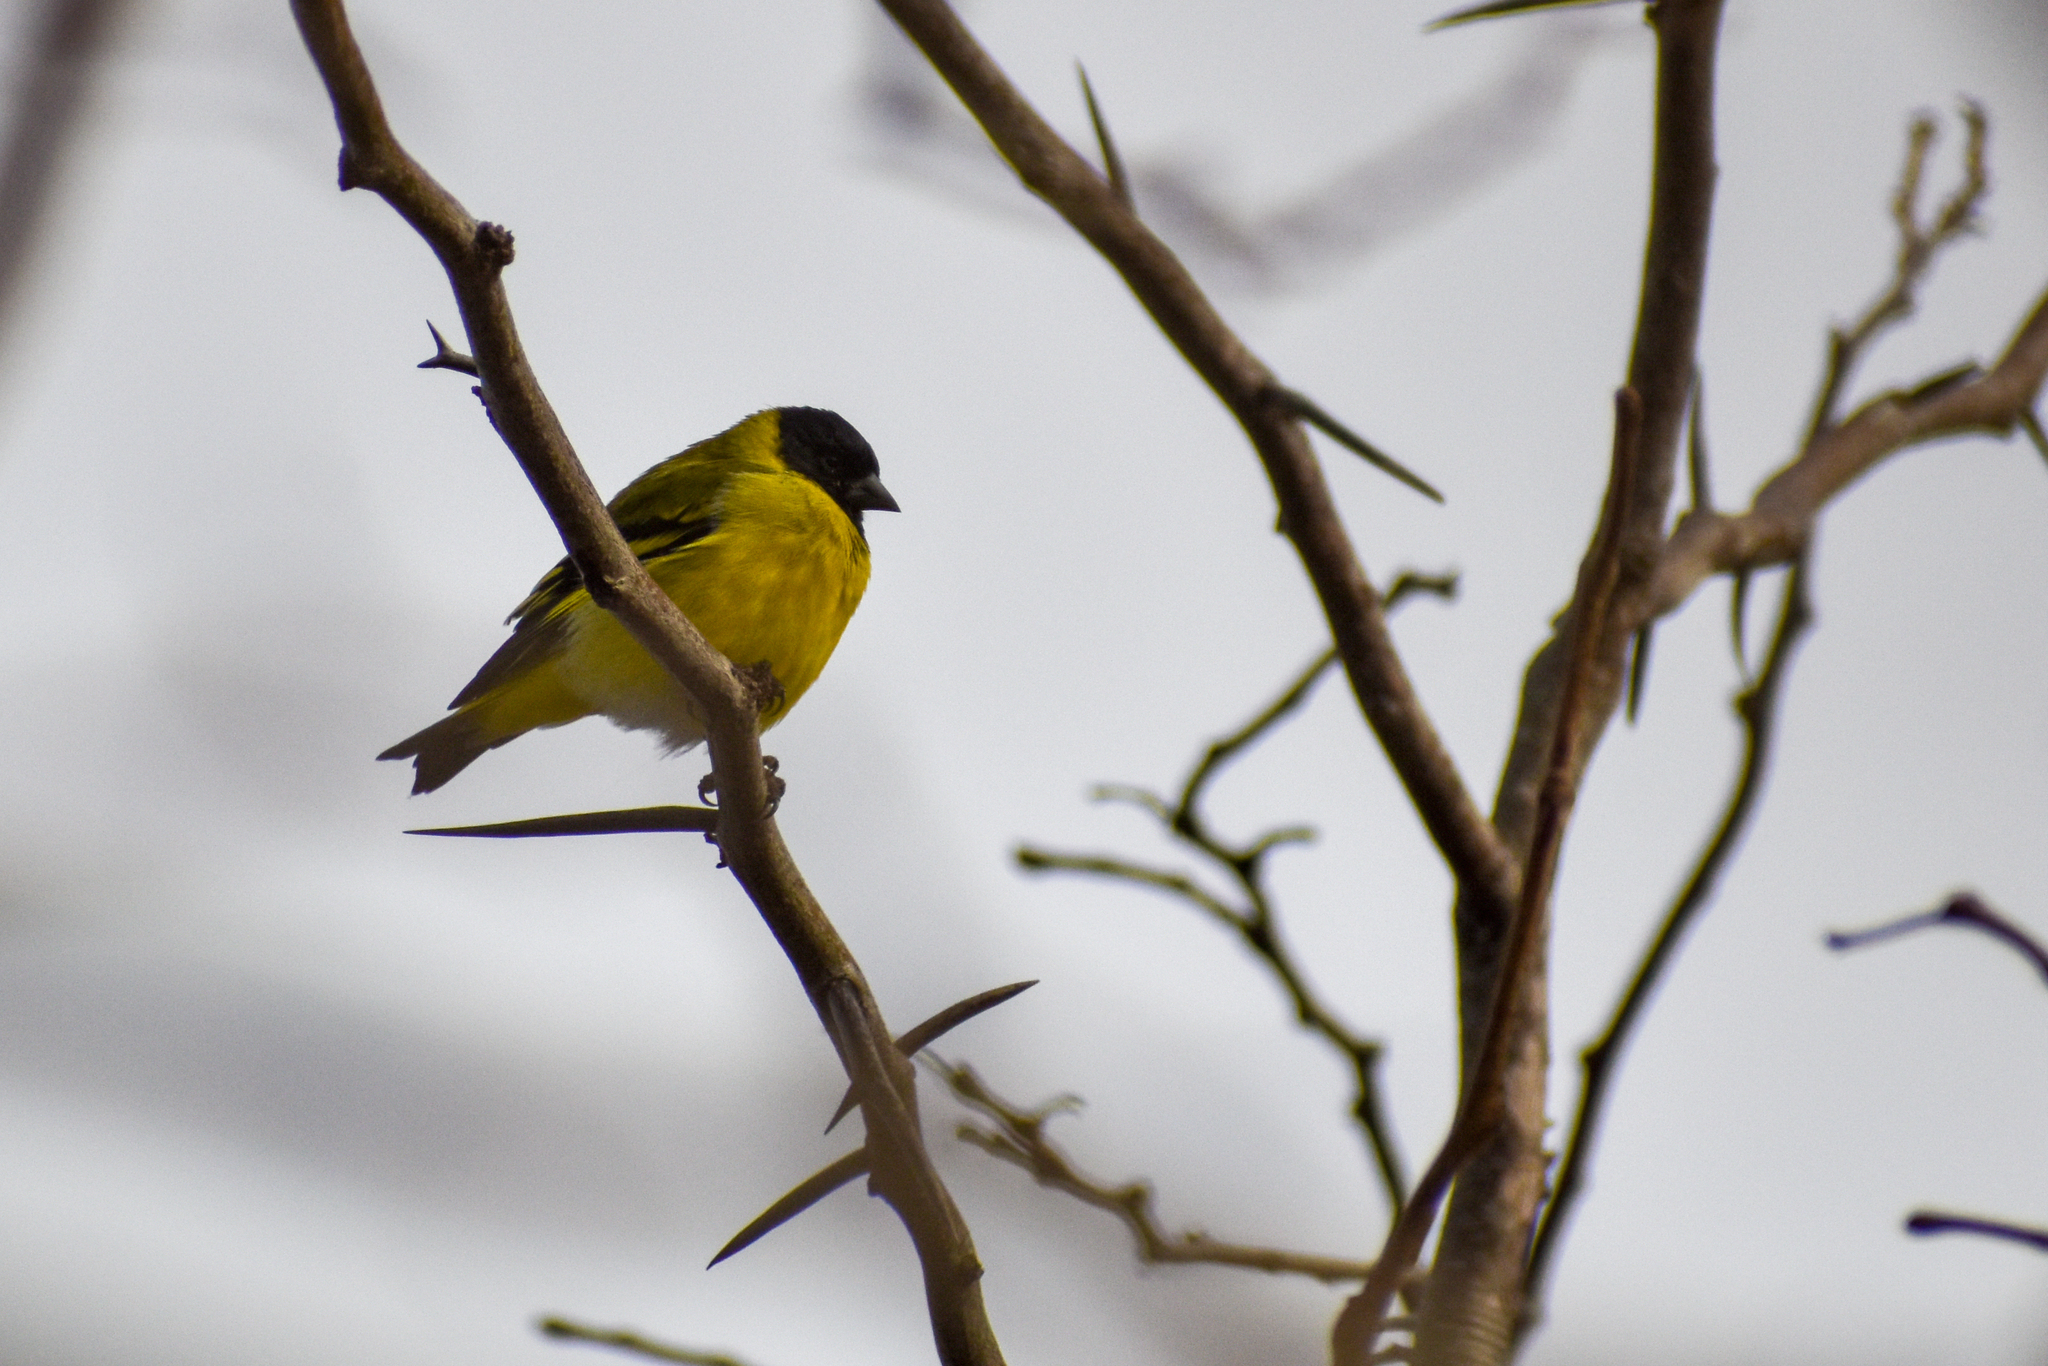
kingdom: Animalia
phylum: Chordata
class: Aves
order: Passeriformes
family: Fringillidae
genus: Spinus
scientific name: Spinus magellanicus
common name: Hooded siskin
